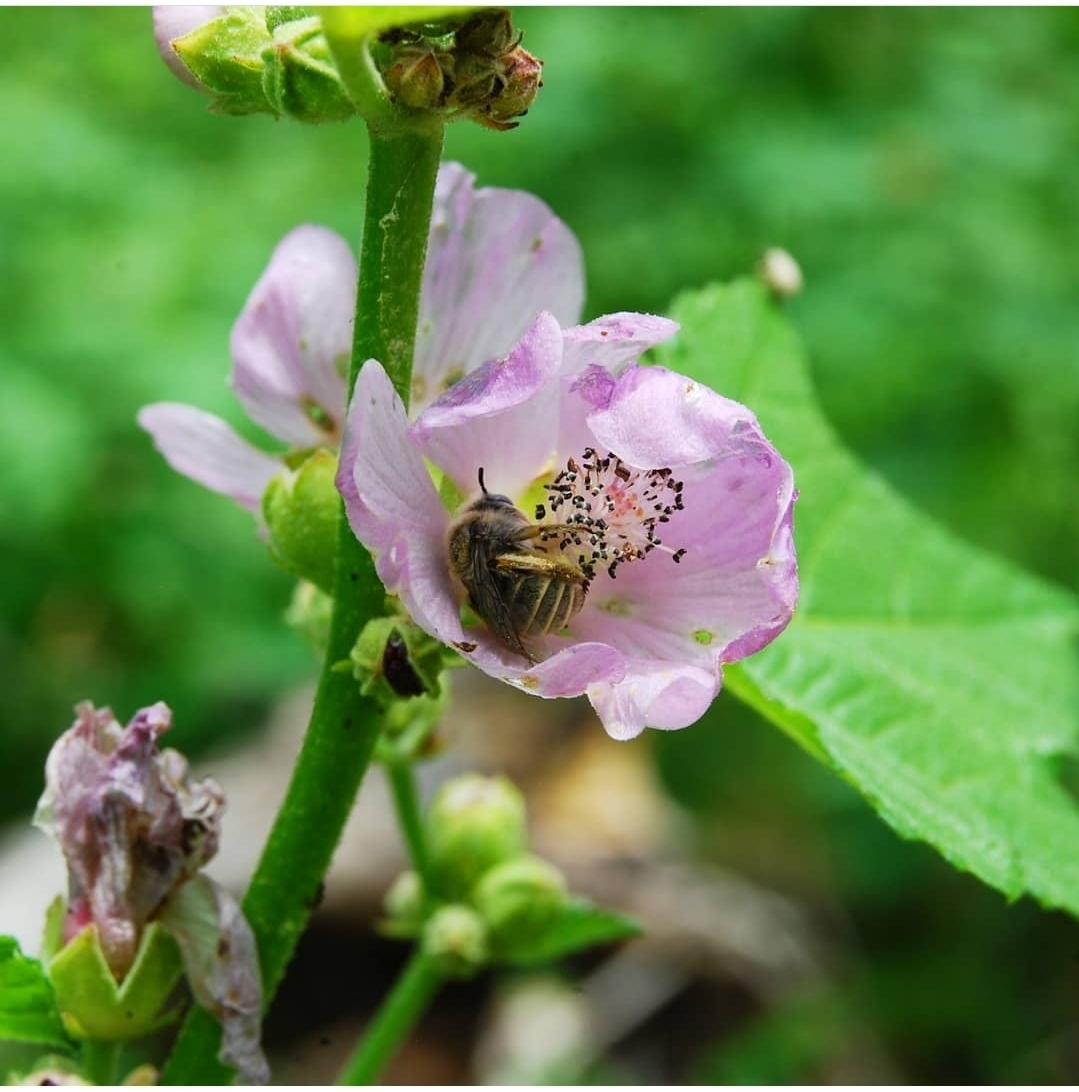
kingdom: Plantae
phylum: Tracheophyta
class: Magnoliopsida
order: Malvales
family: Malvaceae
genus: Iliamna
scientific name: Iliamna rivularis
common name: Wild hollyhock
